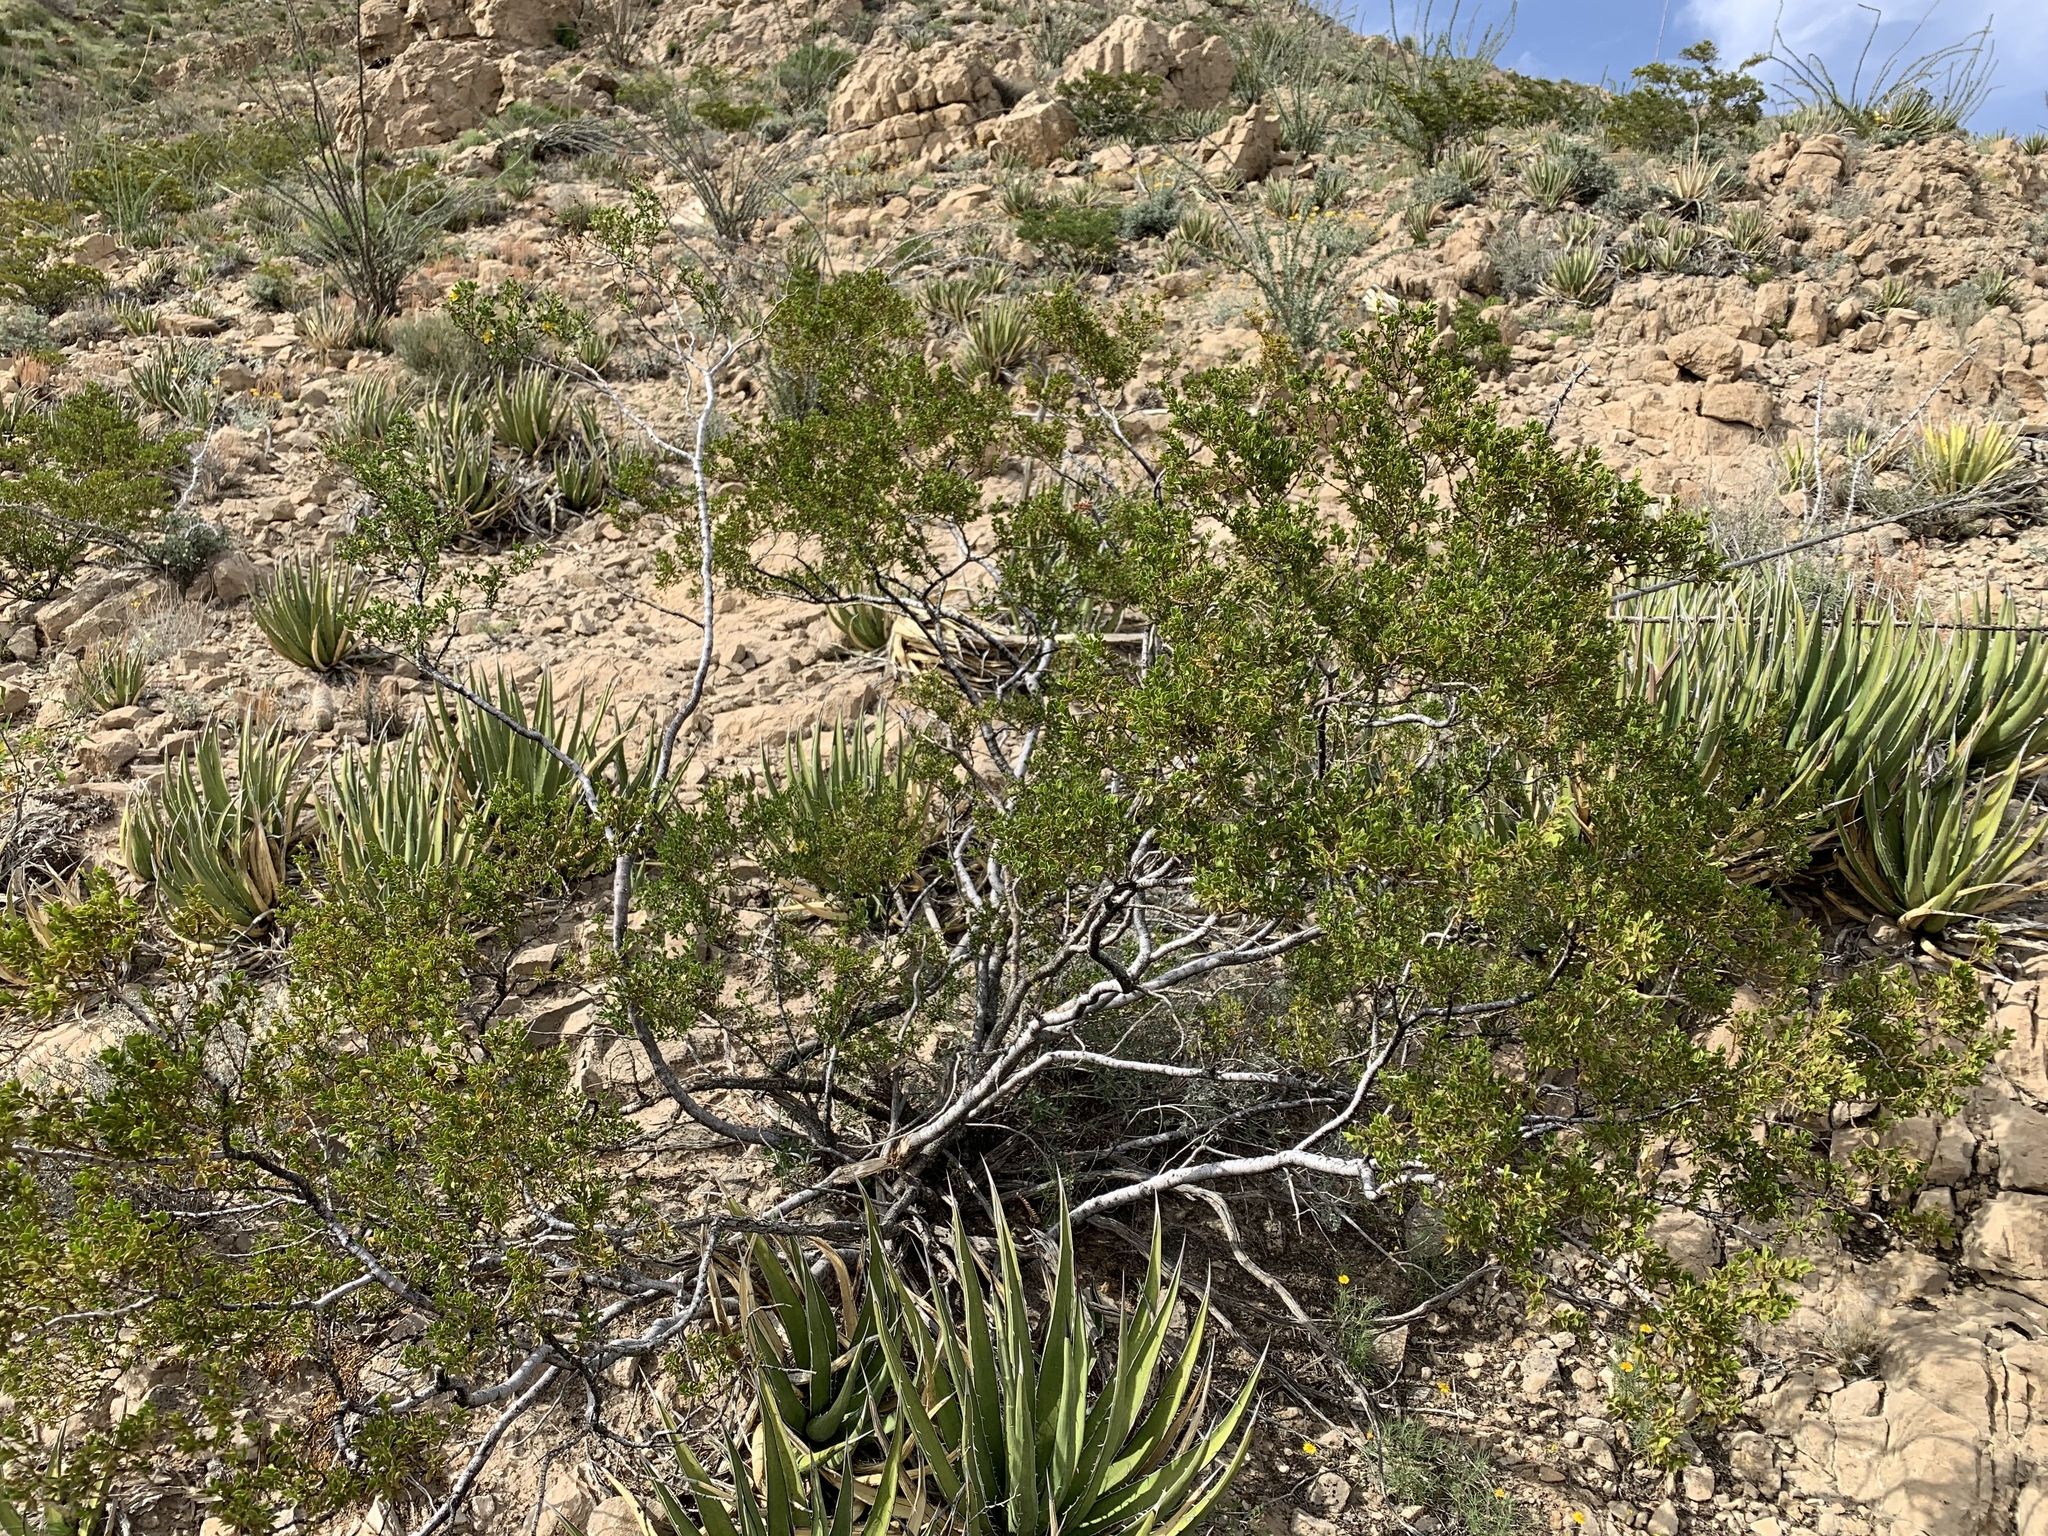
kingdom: Plantae
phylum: Tracheophyta
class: Magnoliopsida
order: Zygophyllales
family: Zygophyllaceae
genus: Larrea
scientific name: Larrea tridentata
